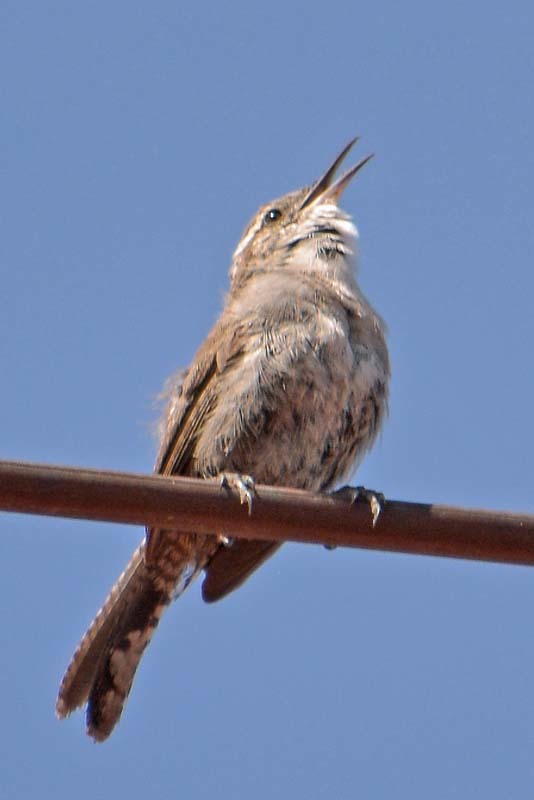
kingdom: Animalia
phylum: Chordata
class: Aves
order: Passeriformes
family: Troglodytidae
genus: Thryomanes
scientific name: Thryomanes bewickii
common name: Bewick's wren
